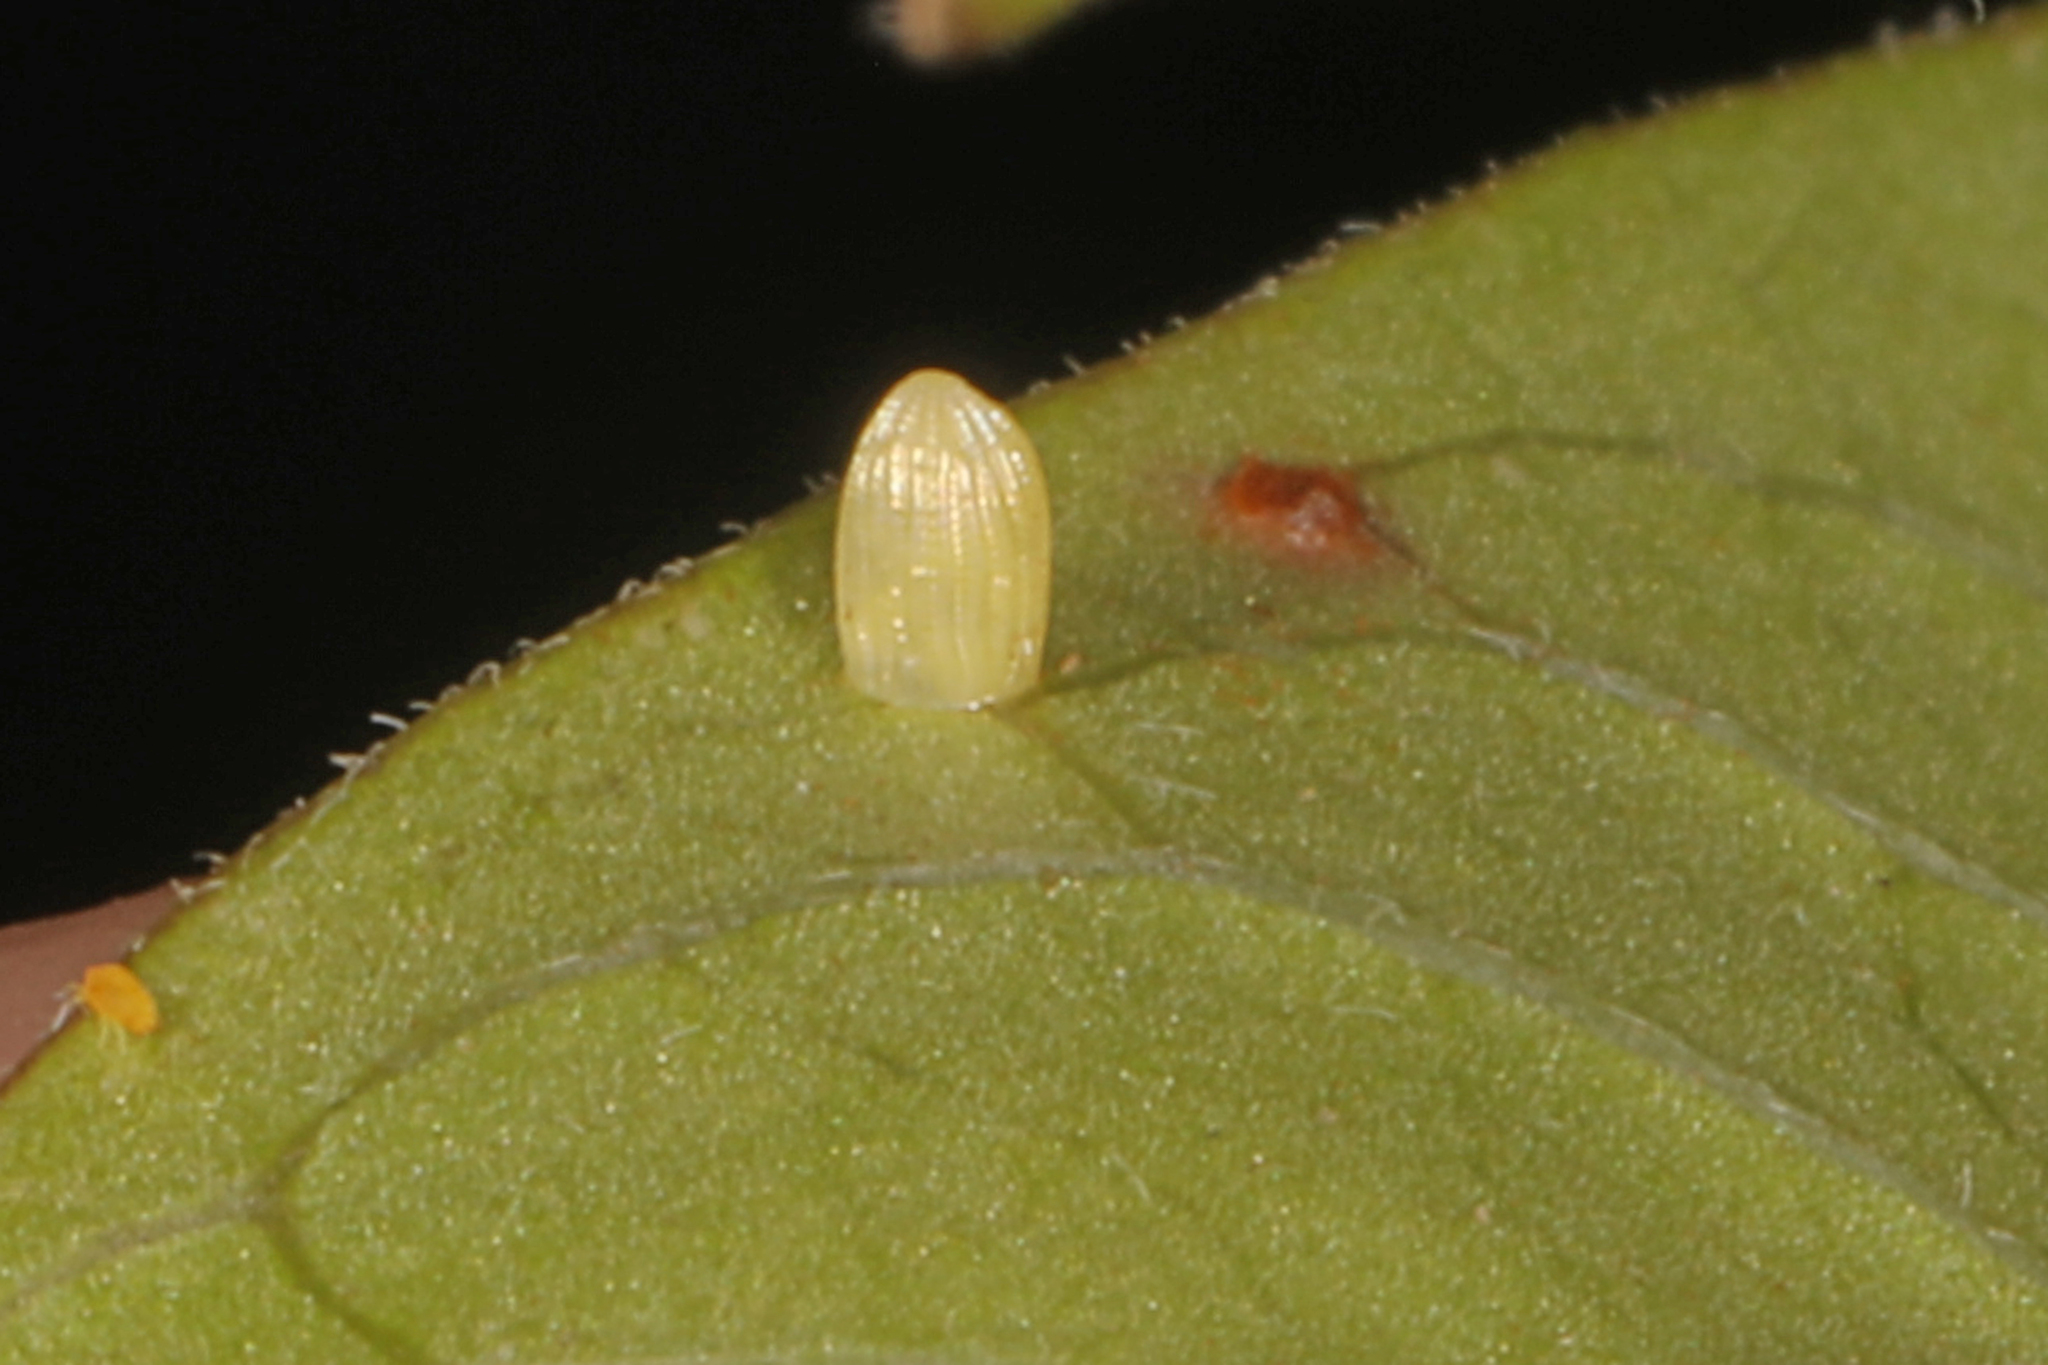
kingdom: Animalia
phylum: Arthropoda
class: Insecta
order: Lepidoptera
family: Nymphalidae
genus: Danaus
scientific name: Danaus plexippus
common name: Monarch
